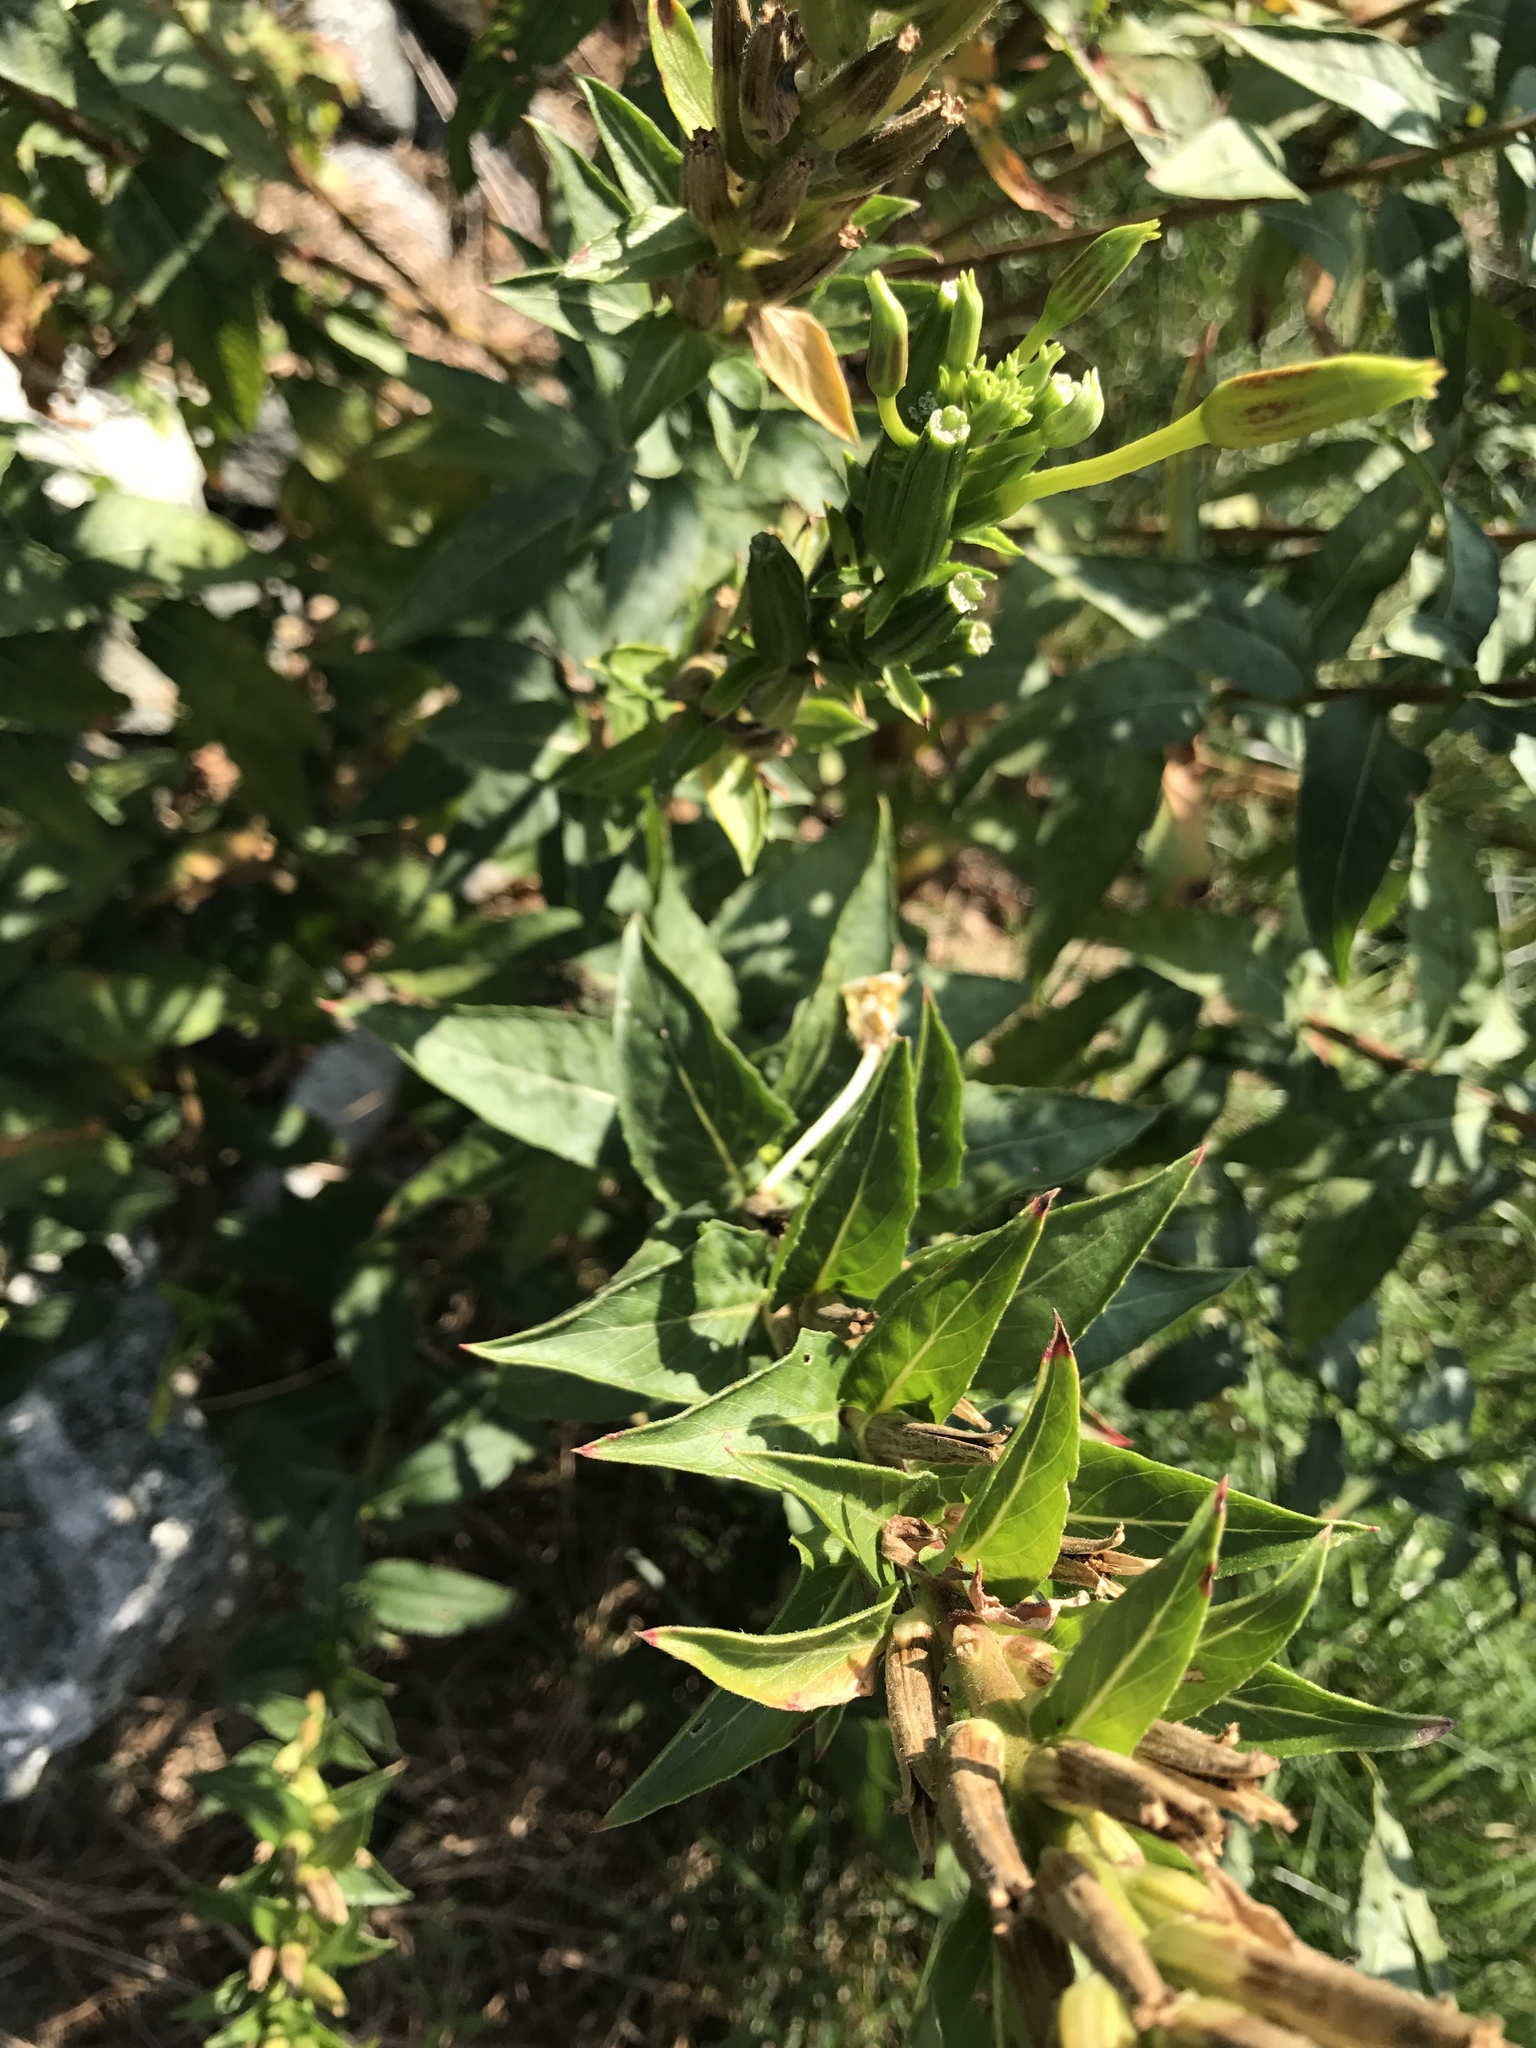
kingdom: Plantae
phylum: Tracheophyta
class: Magnoliopsida
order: Myrtales
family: Onagraceae
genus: Oenothera
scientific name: Oenothera biennis
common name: Common evening-primrose
